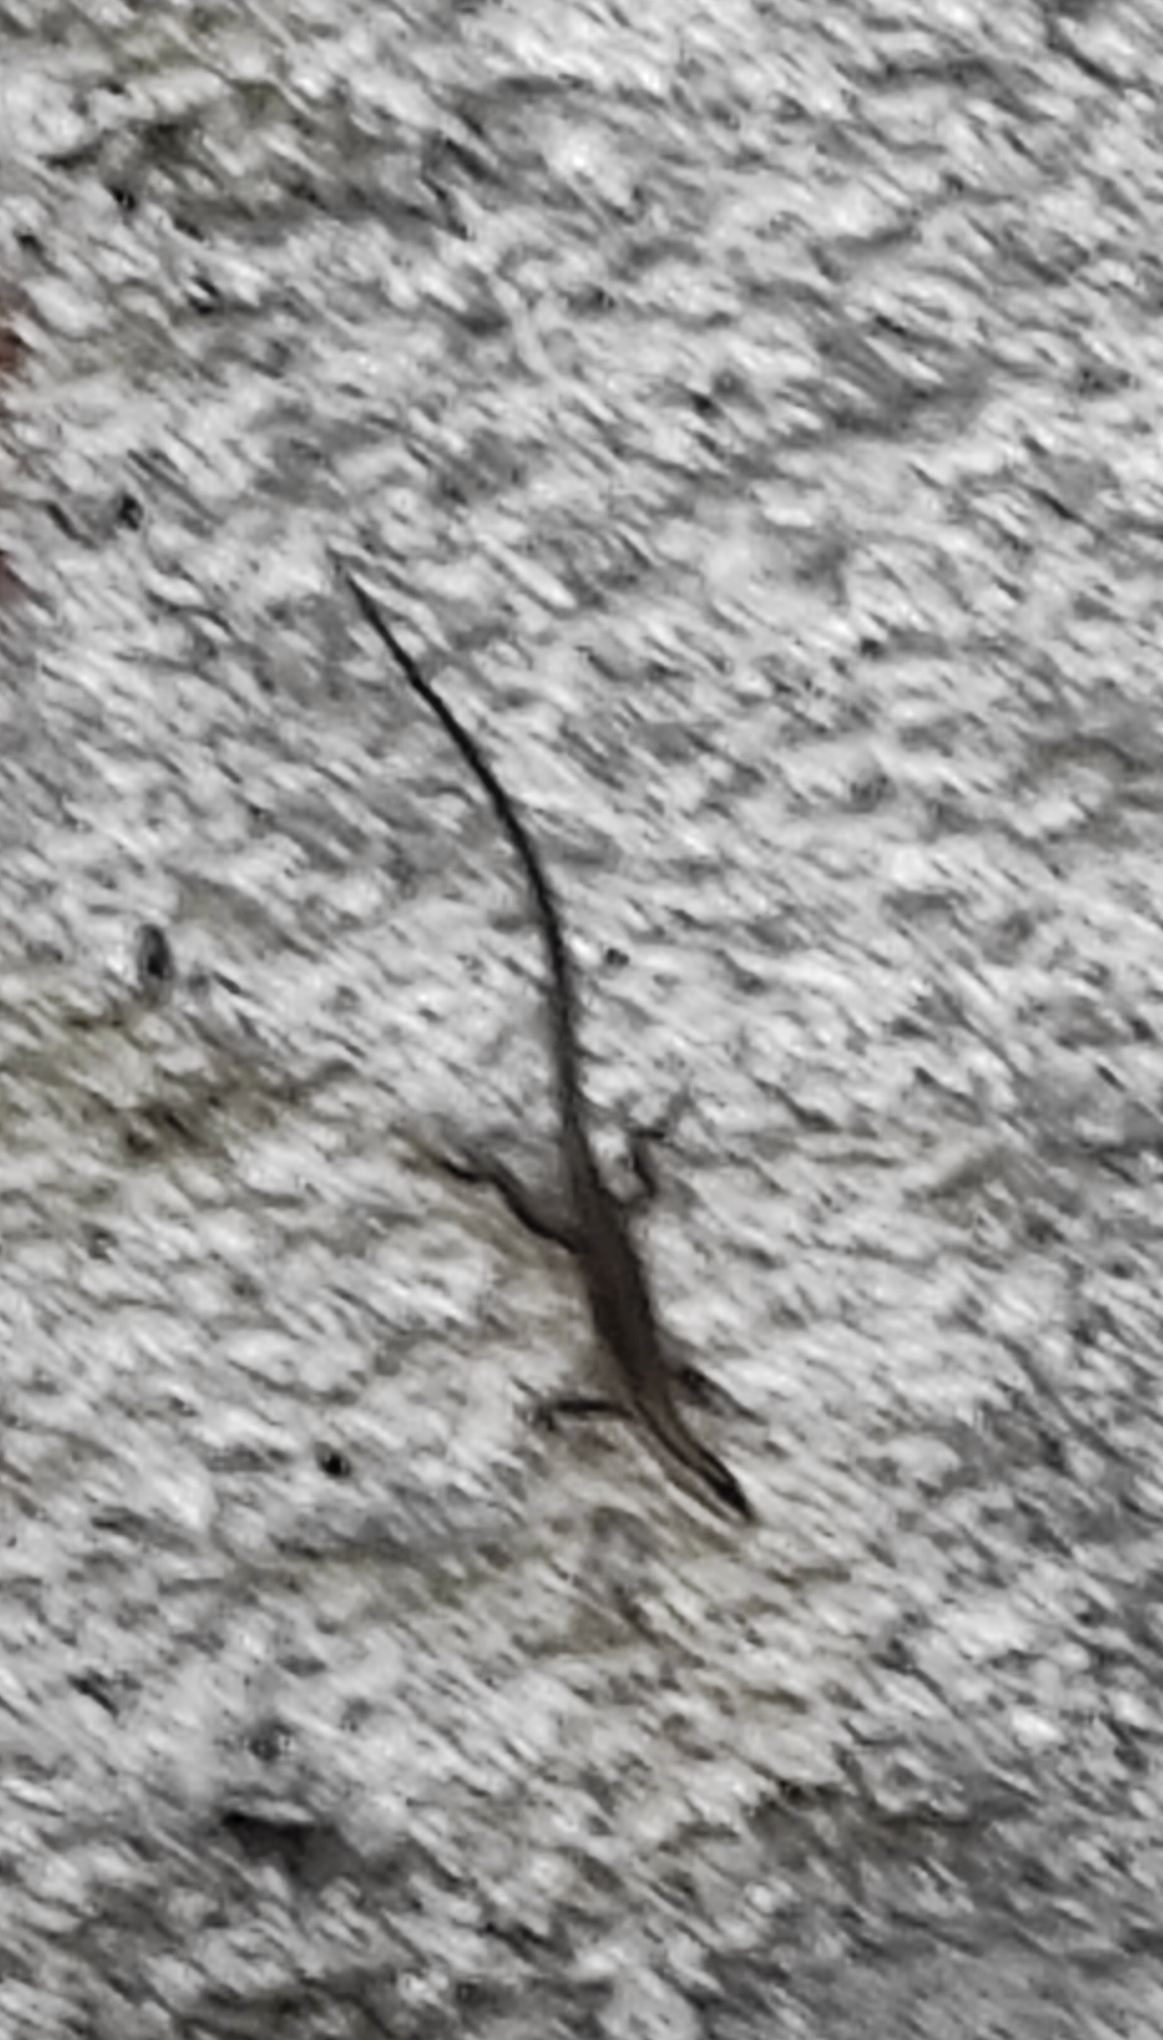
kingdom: Animalia
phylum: Chordata
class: Squamata
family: Lacertidae
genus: Podarcis
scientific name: Podarcis muralis
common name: Common wall lizard
